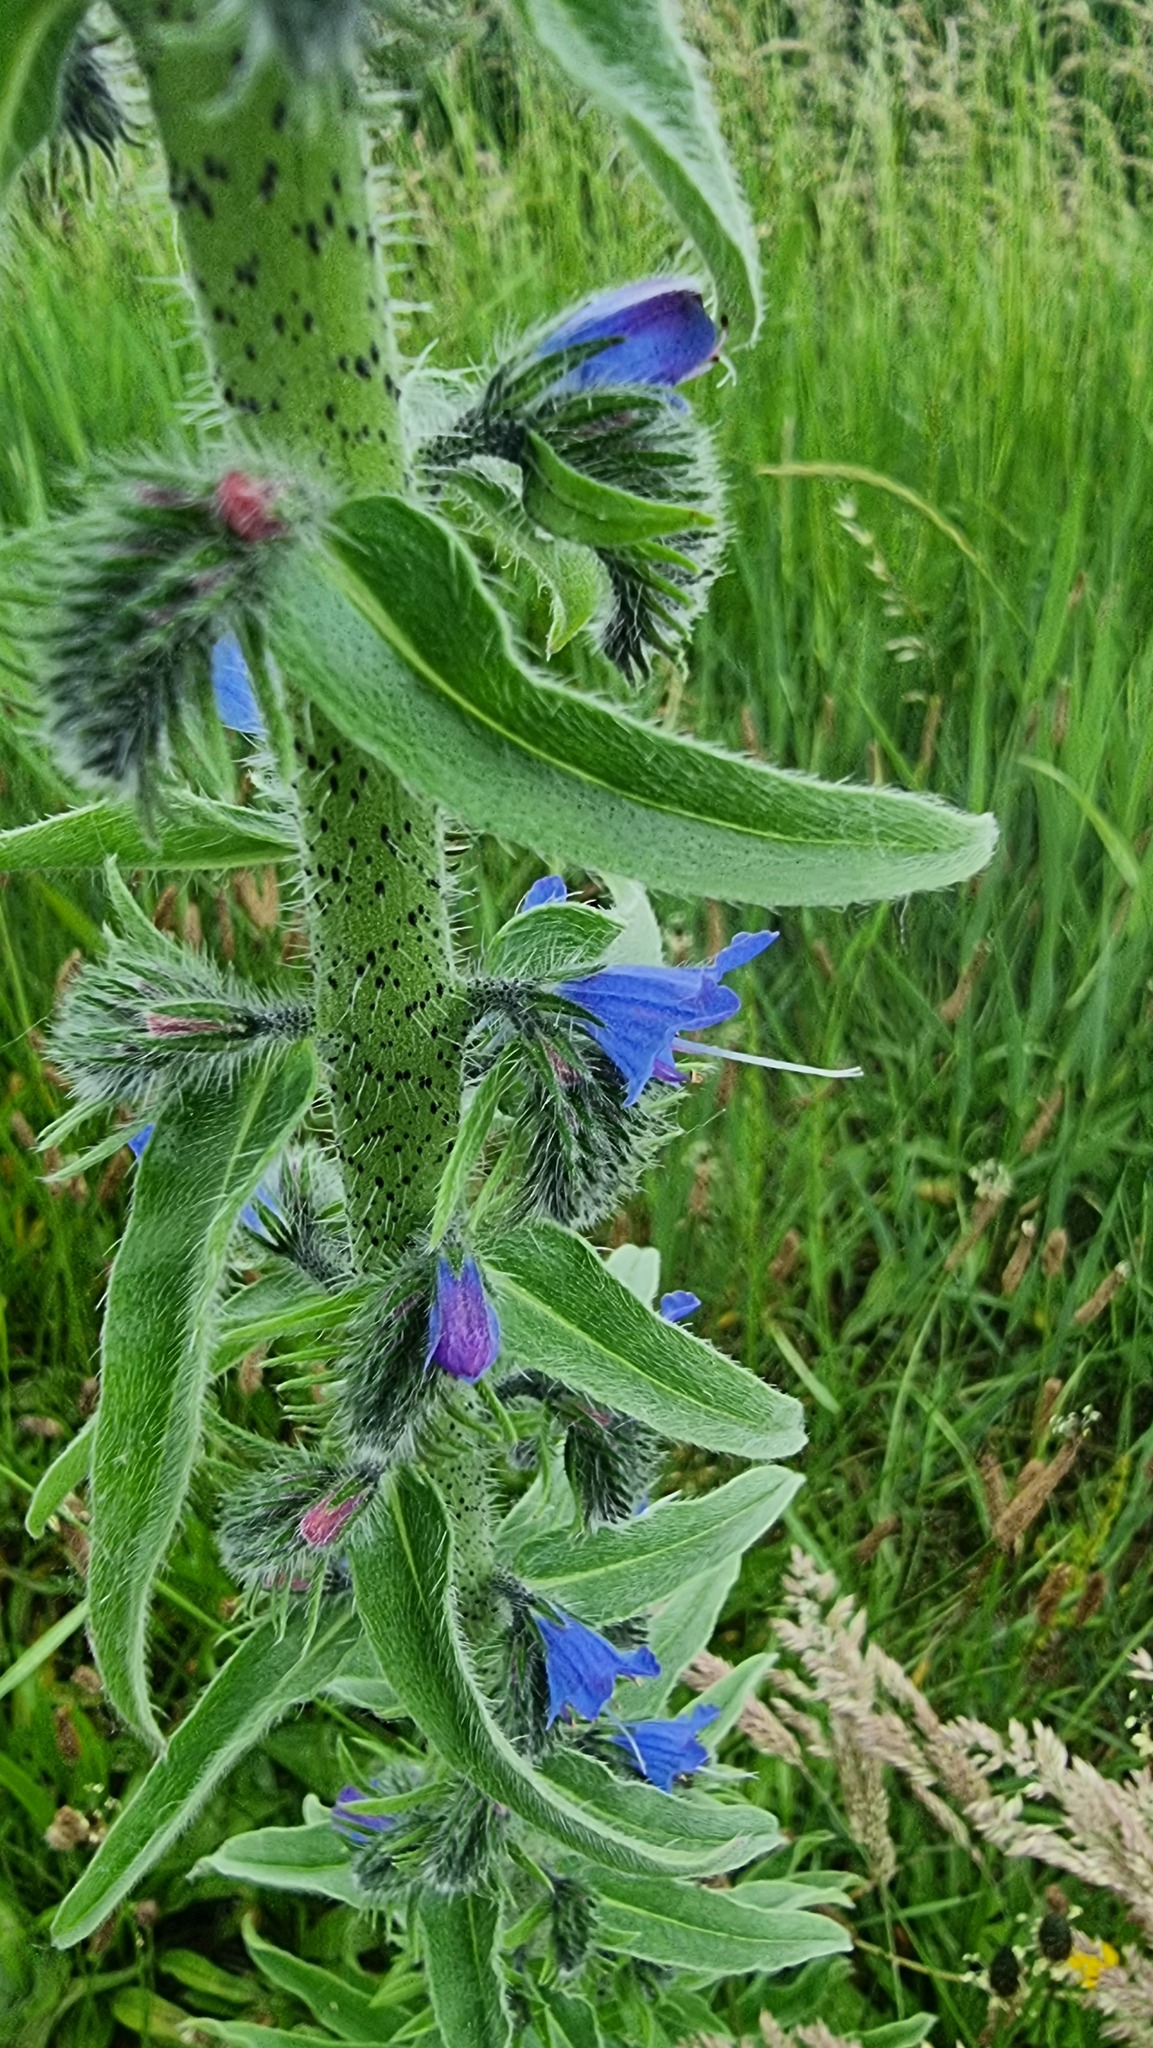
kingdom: Plantae
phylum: Tracheophyta
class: Magnoliopsida
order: Boraginales
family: Boraginaceae
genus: Echium
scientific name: Echium vulgare
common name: Common viper's bugloss
